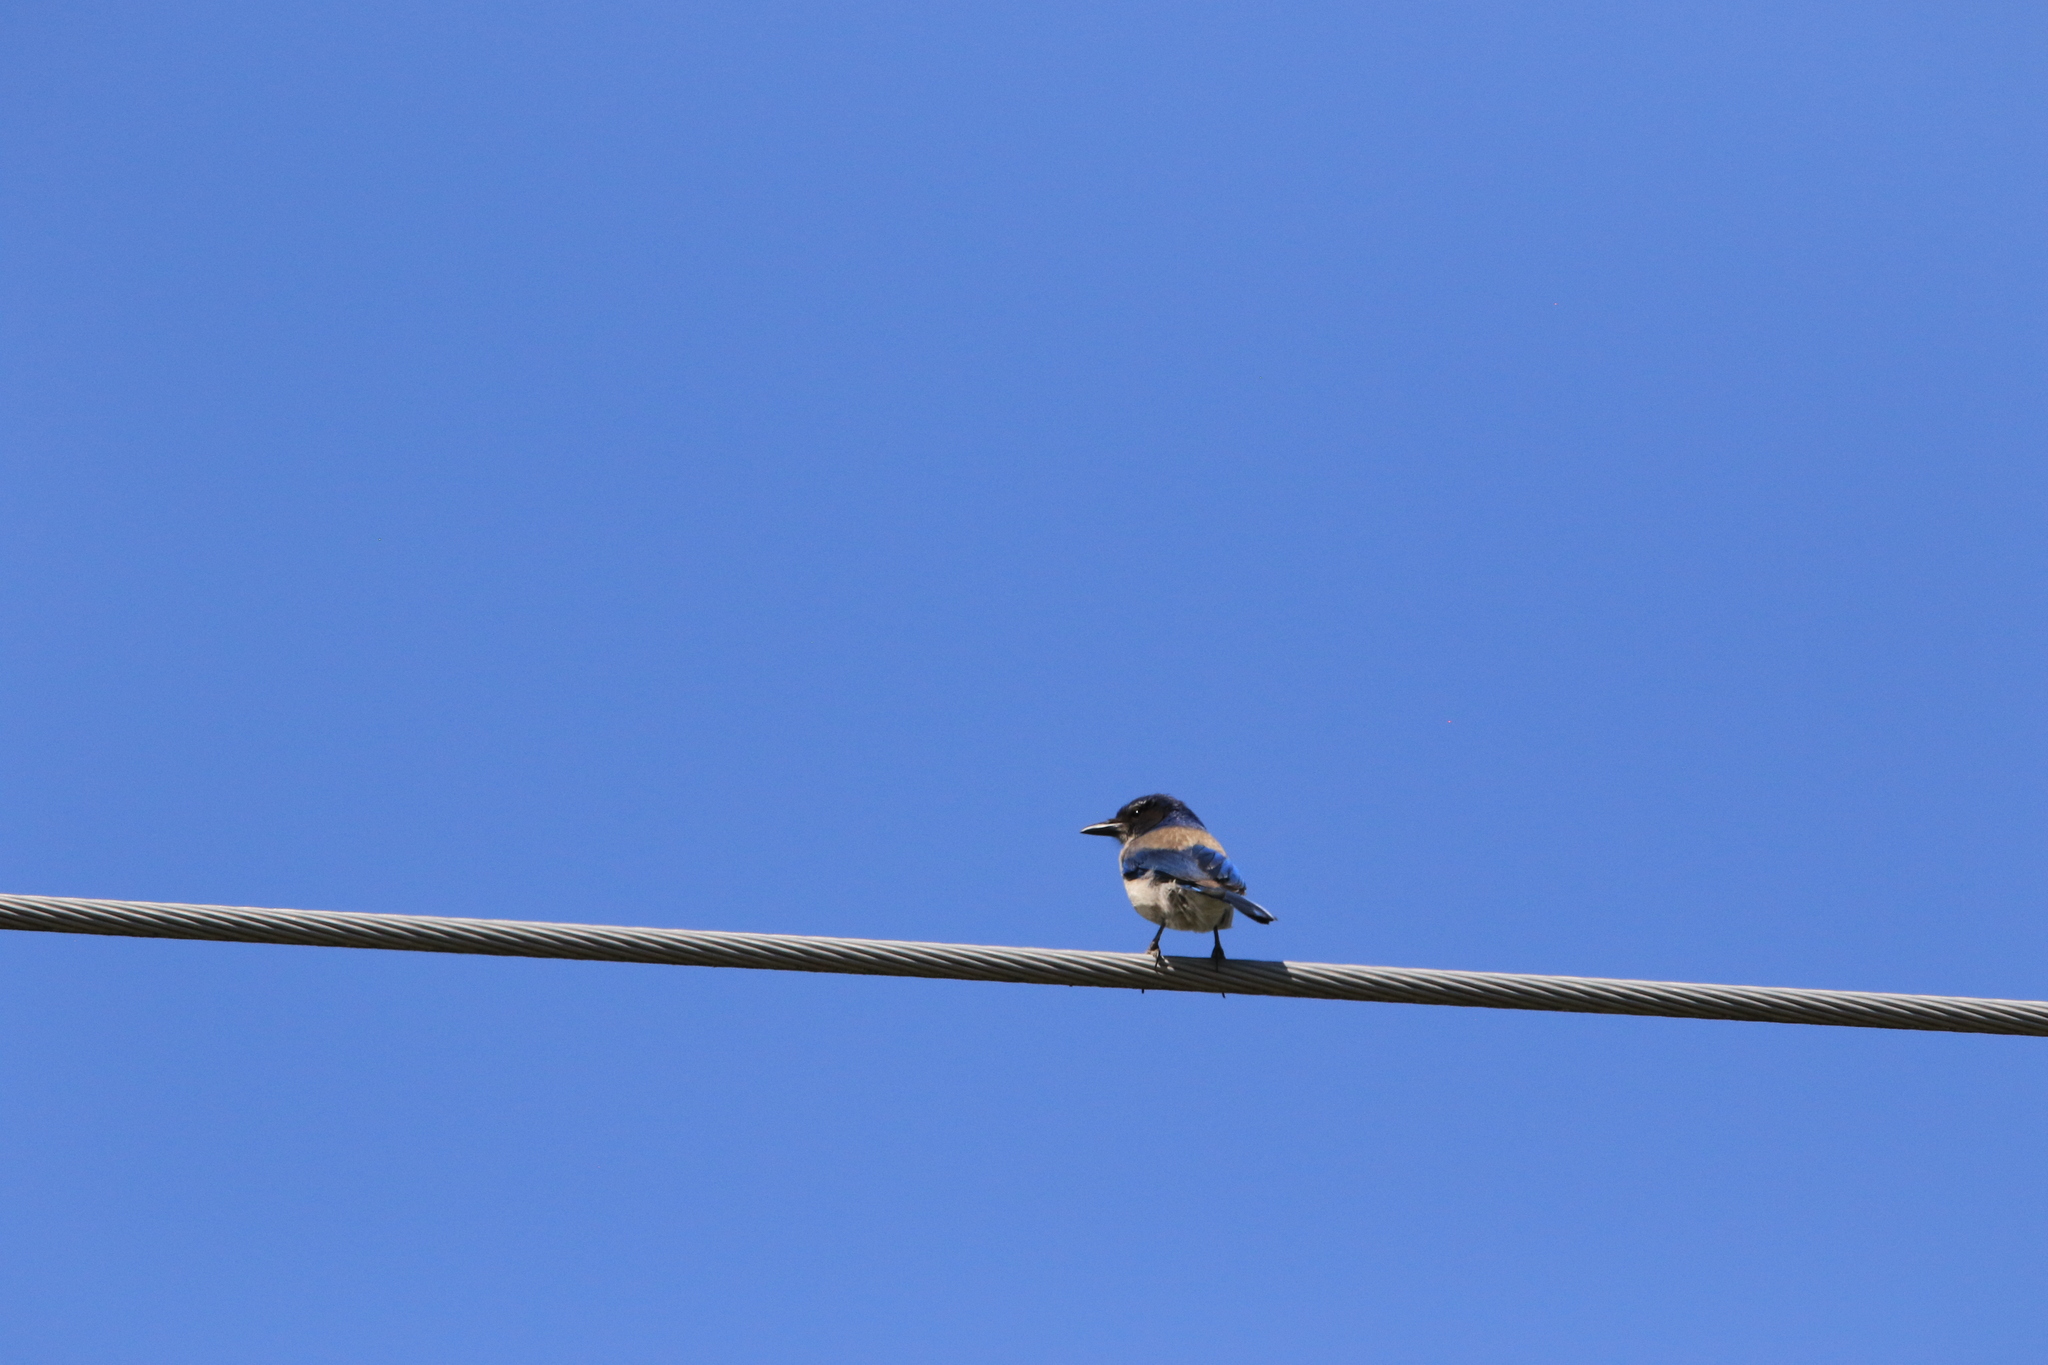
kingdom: Animalia
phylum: Chordata
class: Aves
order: Passeriformes
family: Corvidae
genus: Aphelocoma
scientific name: Aphelocoma californica
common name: California scrub-jay
